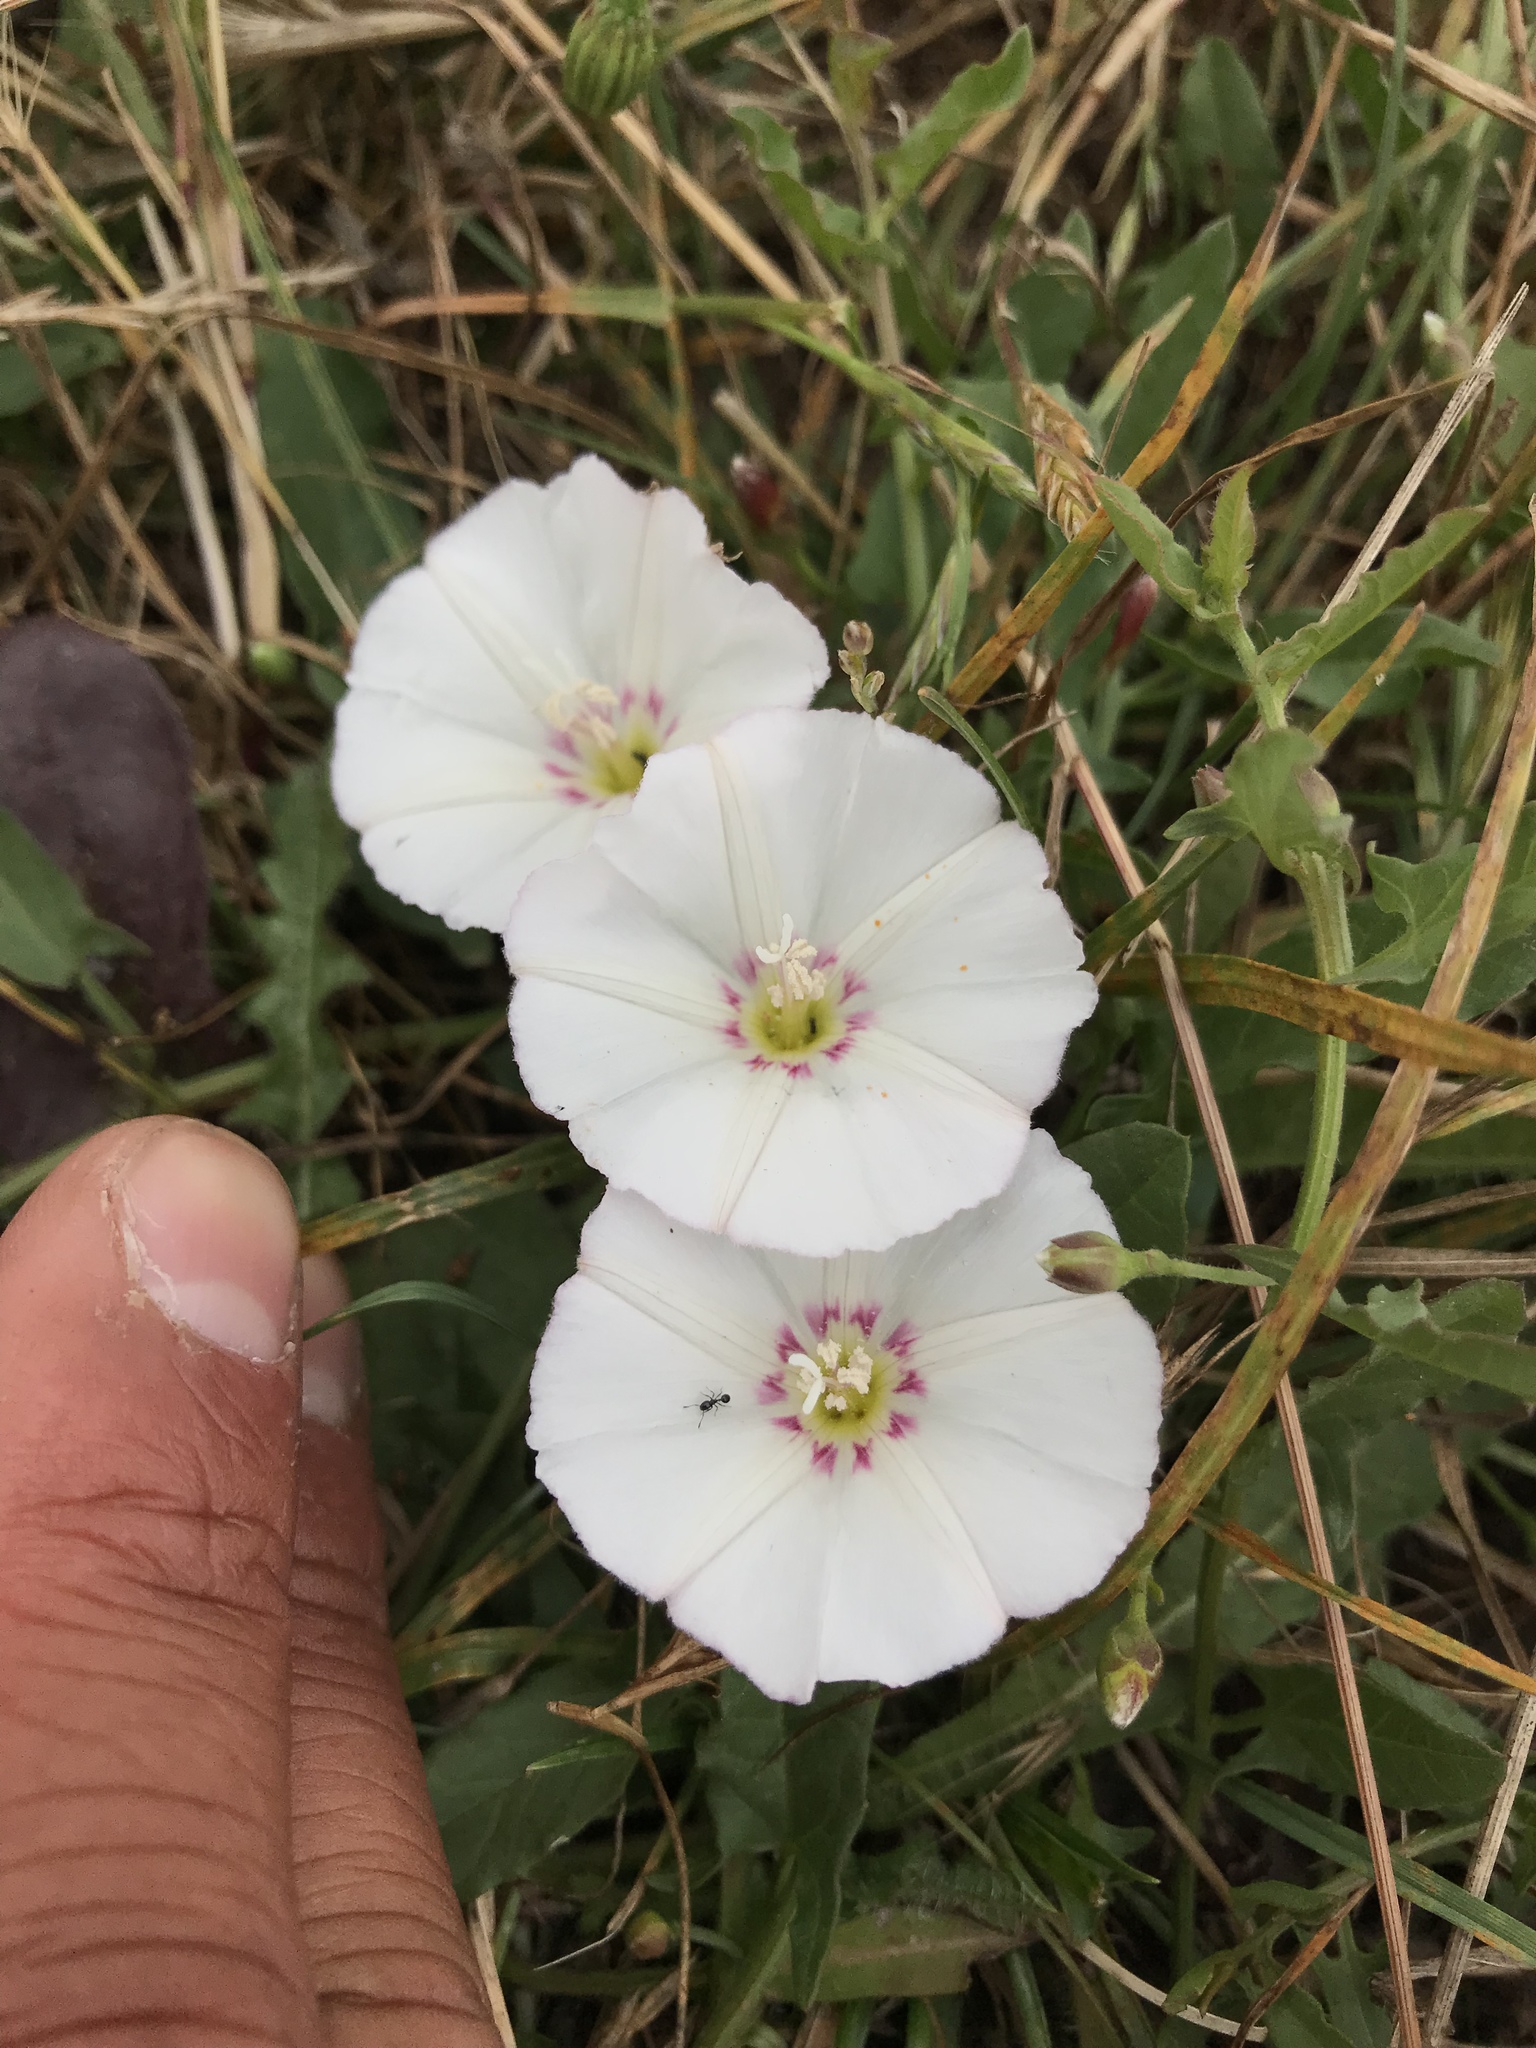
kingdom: Plantae
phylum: Tracheophyta
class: Magnoliopsida
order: Solanales
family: Convolvulaceae
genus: Convolvulus
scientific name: Convolvulus arvensis
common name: Field bindweed
